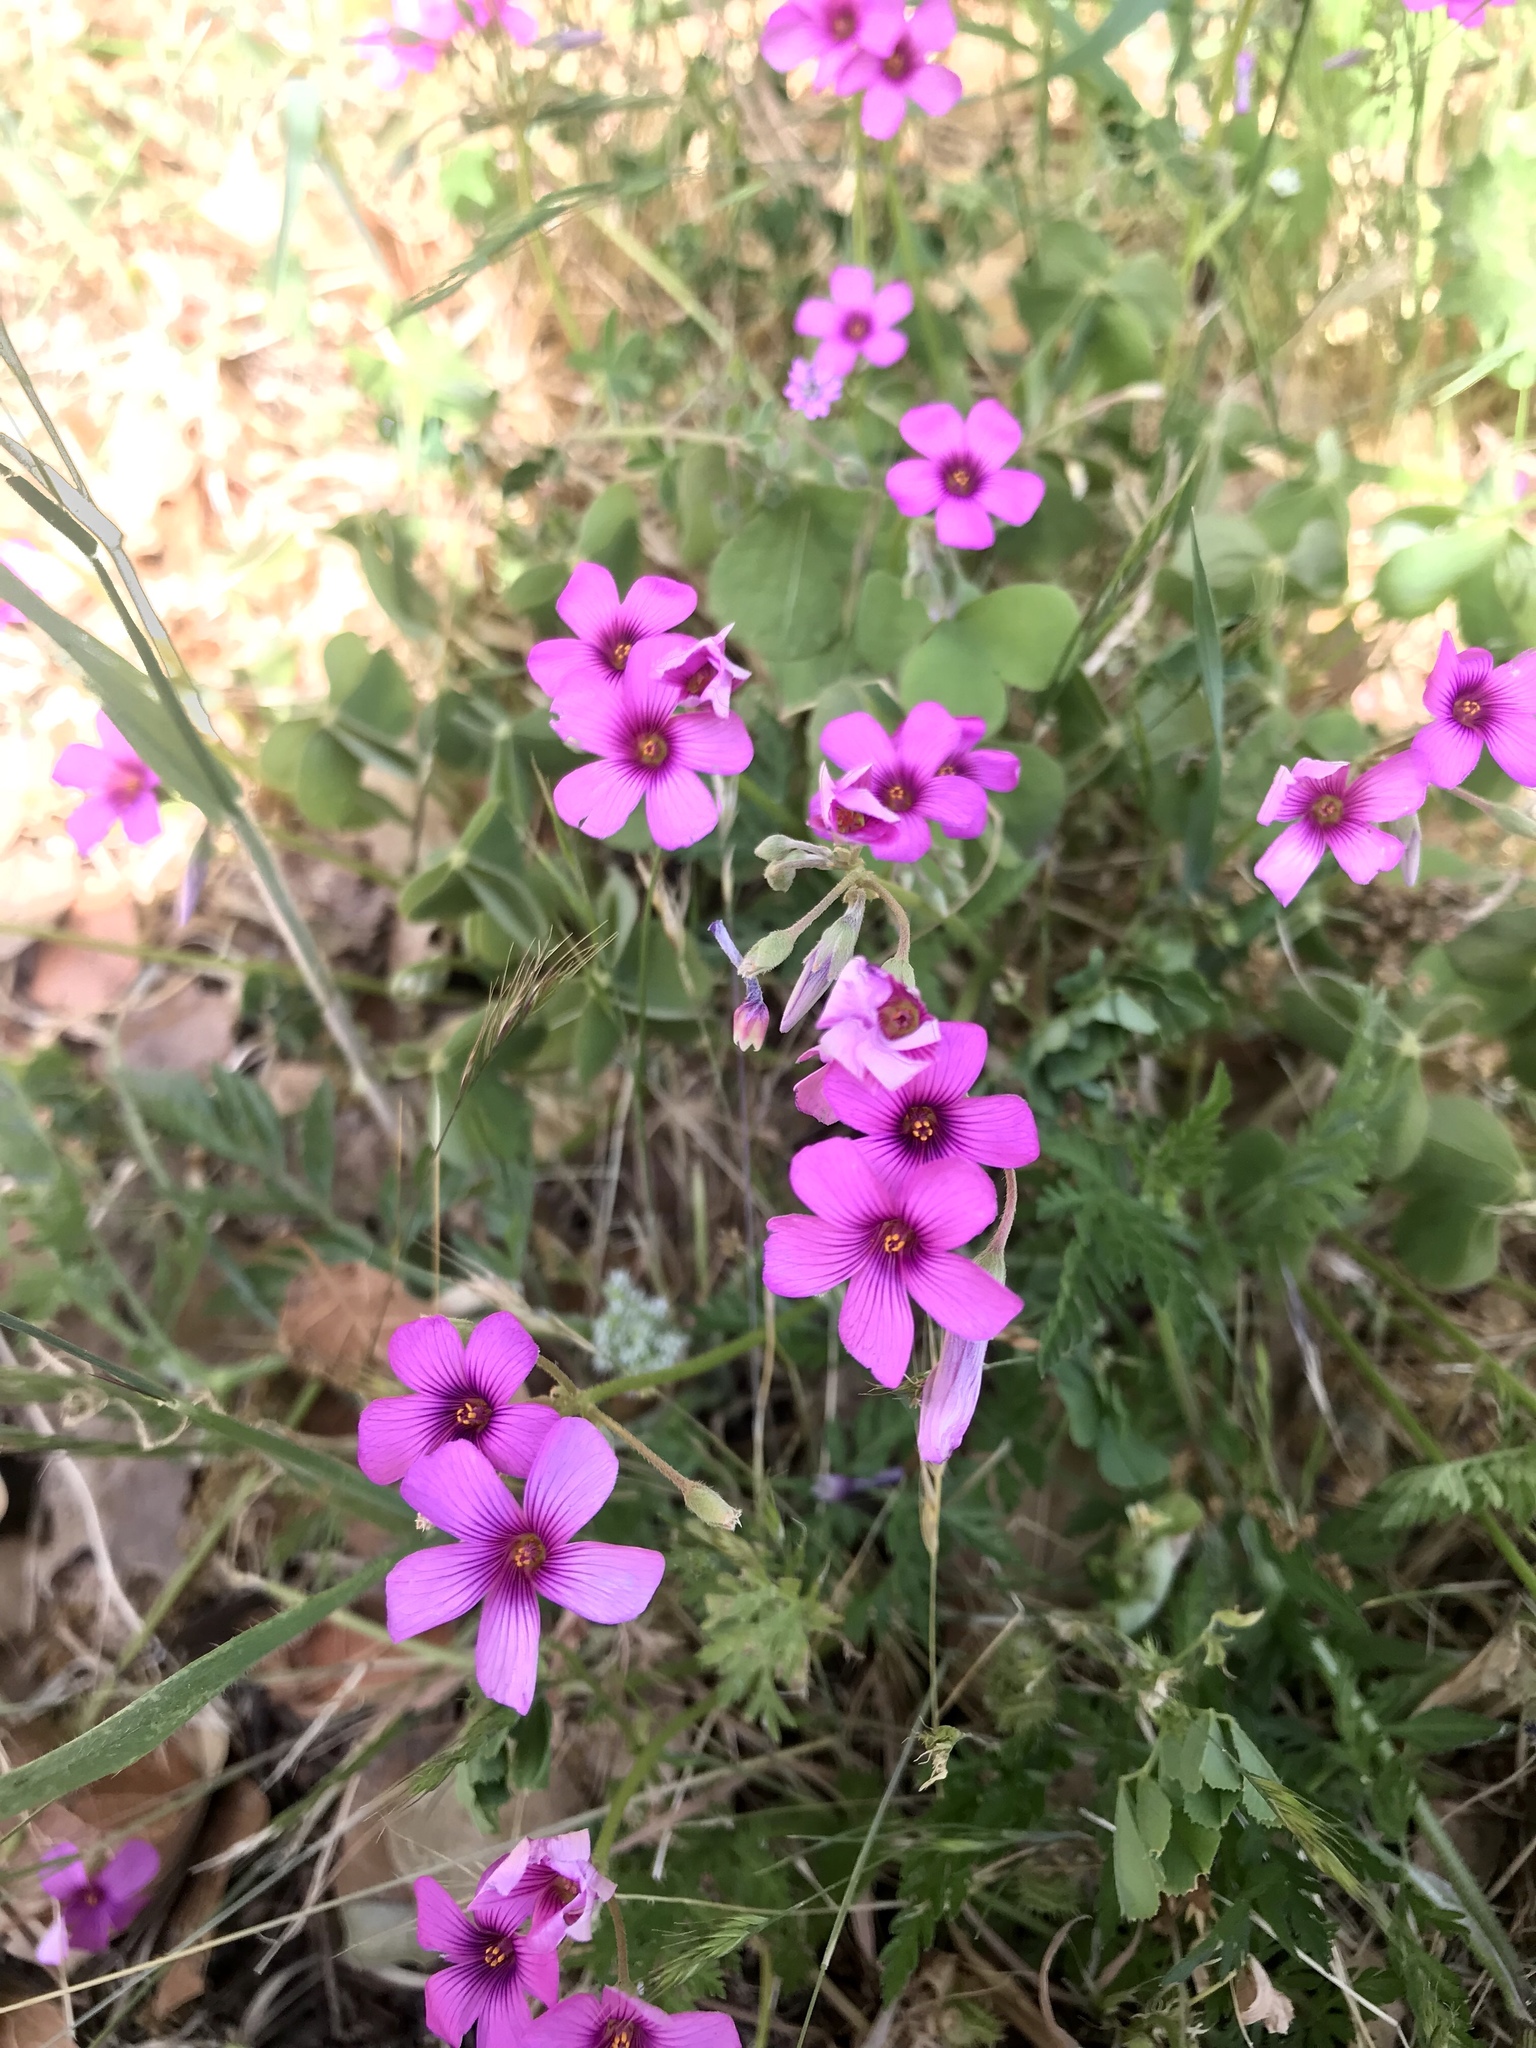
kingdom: Plantae
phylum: Tracheophyta
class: Magnoliopsida
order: Oxalidales
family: Oxalidaceae
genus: Oxalis
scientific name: Oxalis articulata
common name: Pink-sorrel
